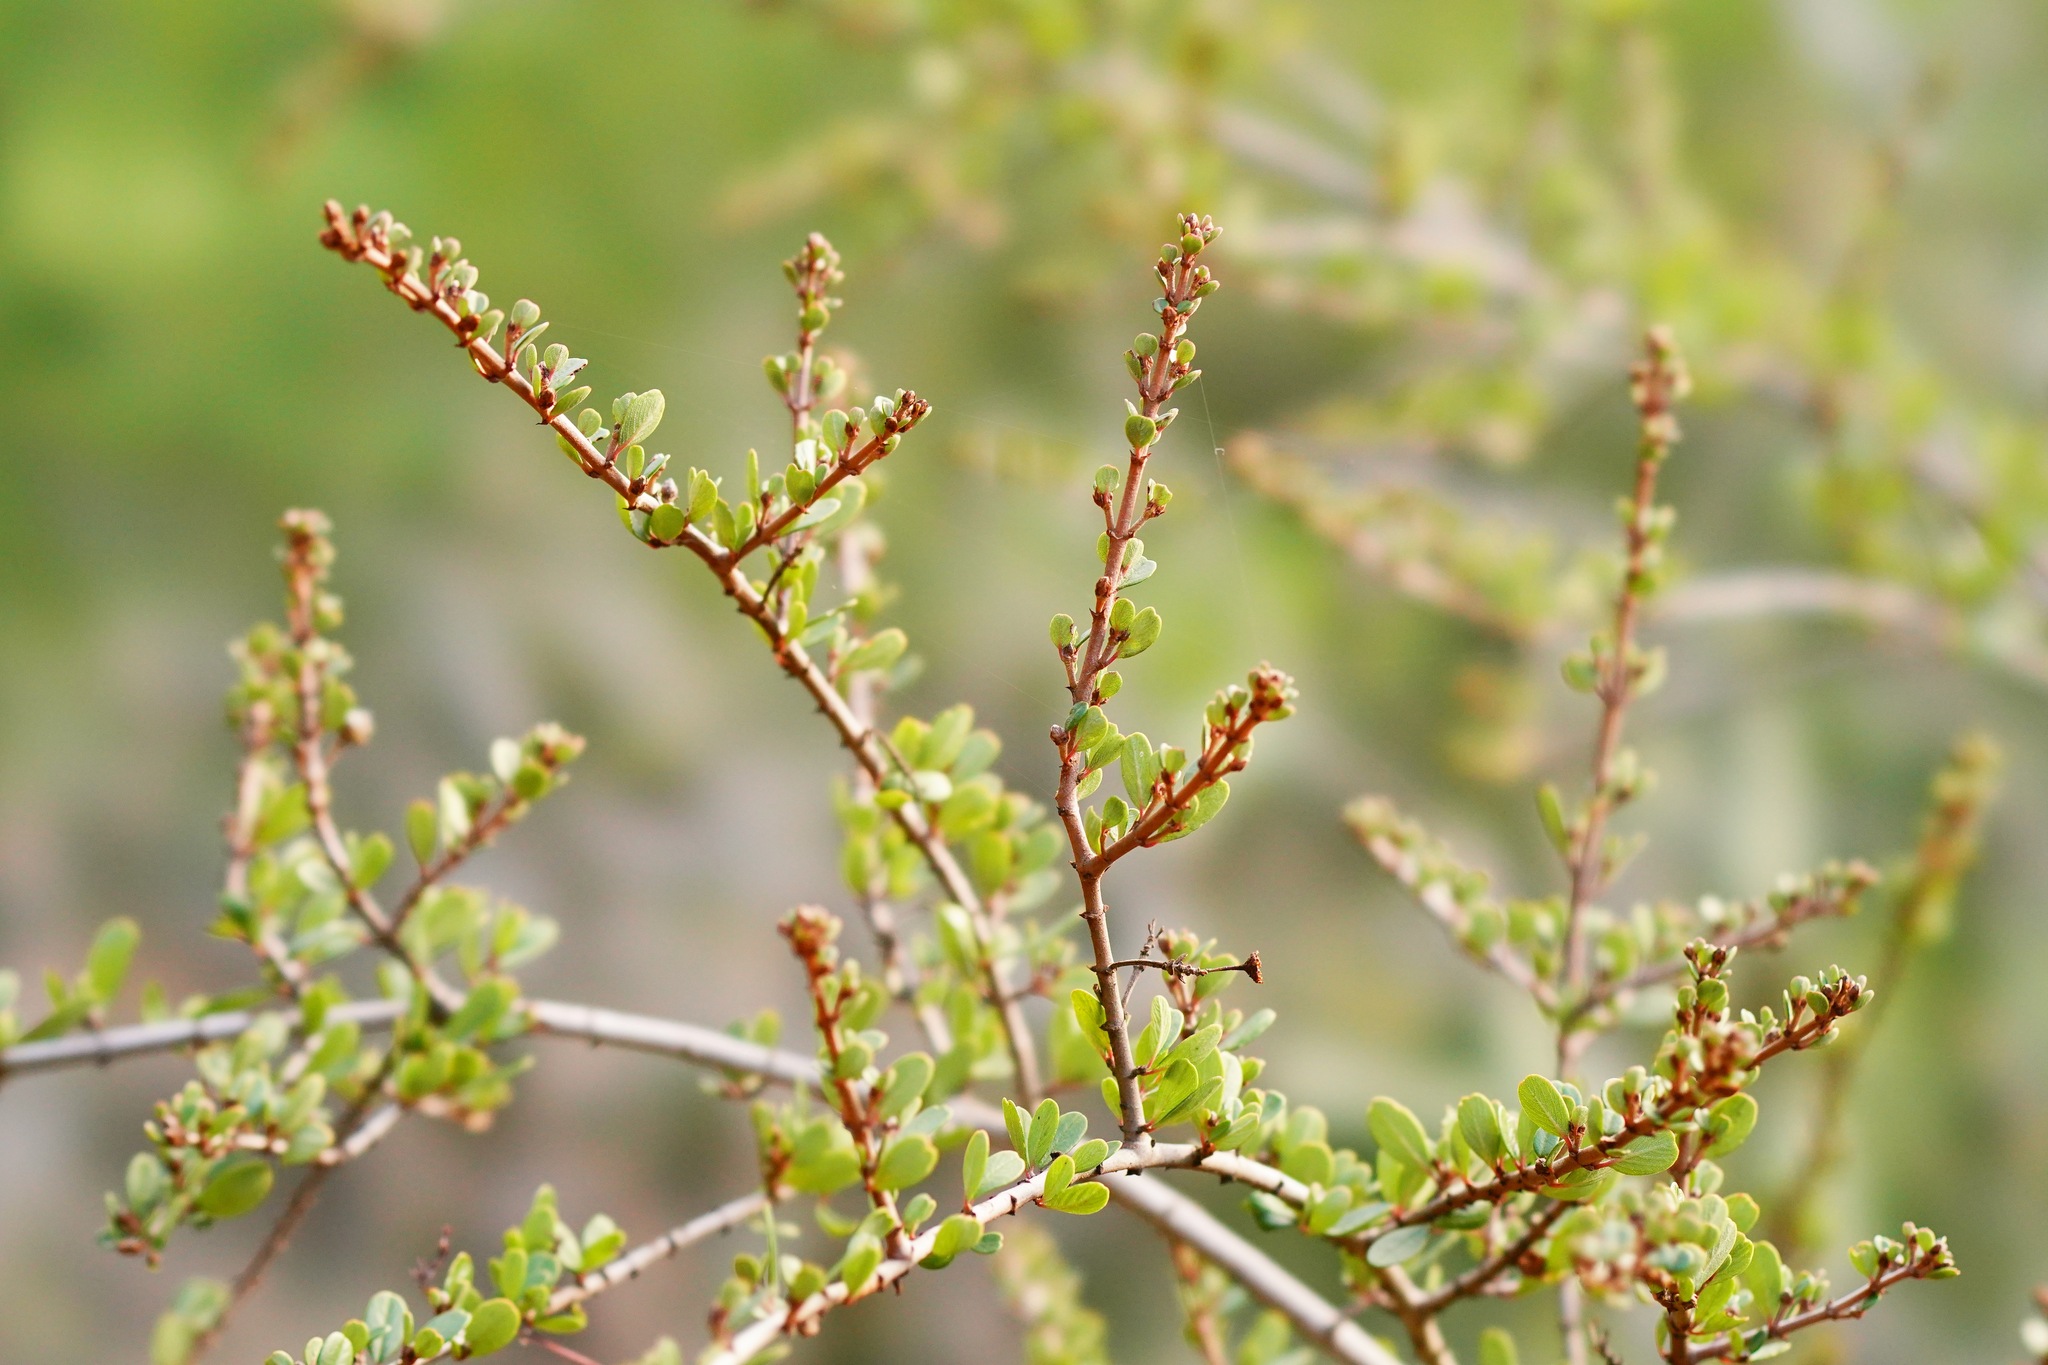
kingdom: Plantae
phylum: Tracheophyta
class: Magnoliopsida
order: Rosales
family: Rhamnaceae
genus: Ceanothus
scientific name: Ceanothus cuneatus
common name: Cuneate ceanothus
